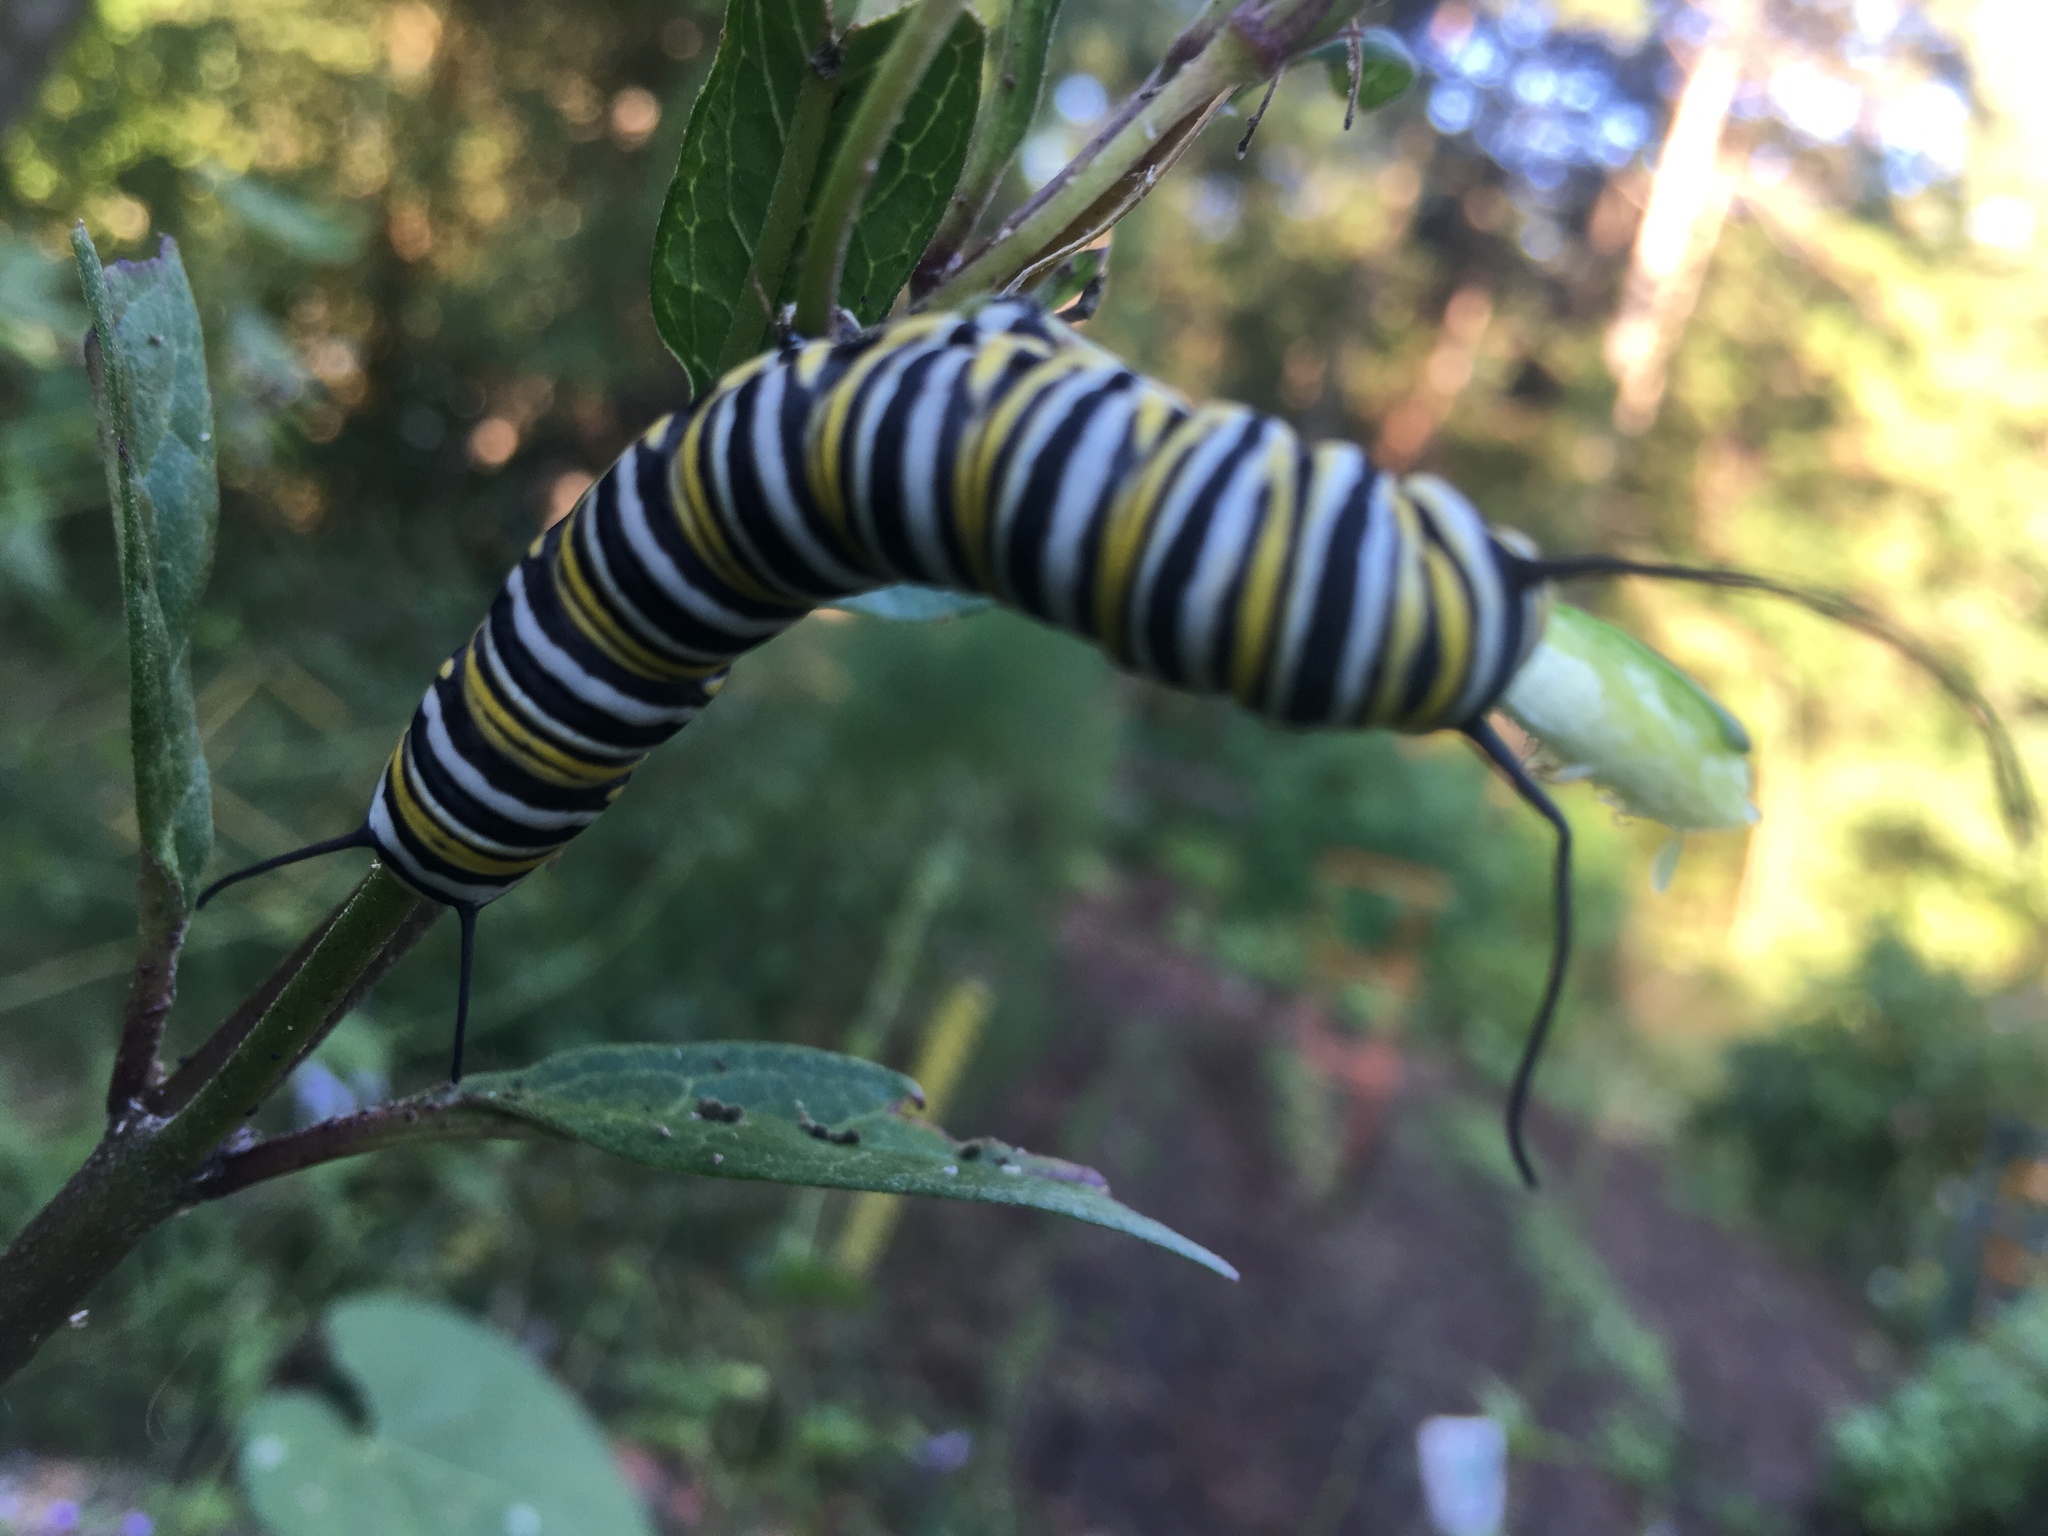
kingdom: Animalia
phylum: Arthropoda
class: Insecta
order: Lepidoptera
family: Nymphalidae
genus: Danaus
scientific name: Danaus plexippus
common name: Monarch
